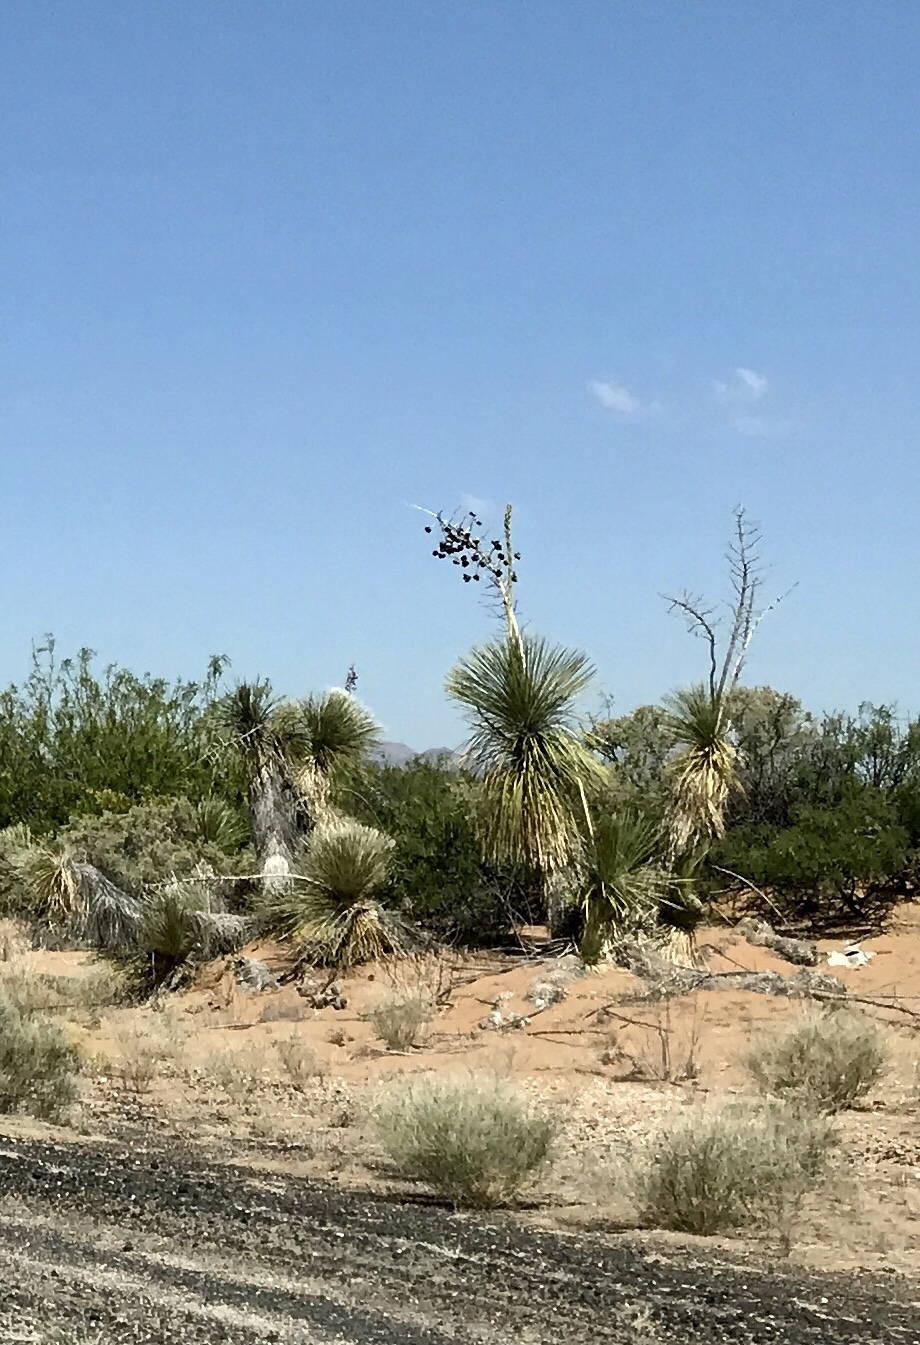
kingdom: Plantae
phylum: Tracheophyta
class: Liliopsida
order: Asparagales
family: Asparagaceae
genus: Yucca
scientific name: Yucca elata
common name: Palmella
